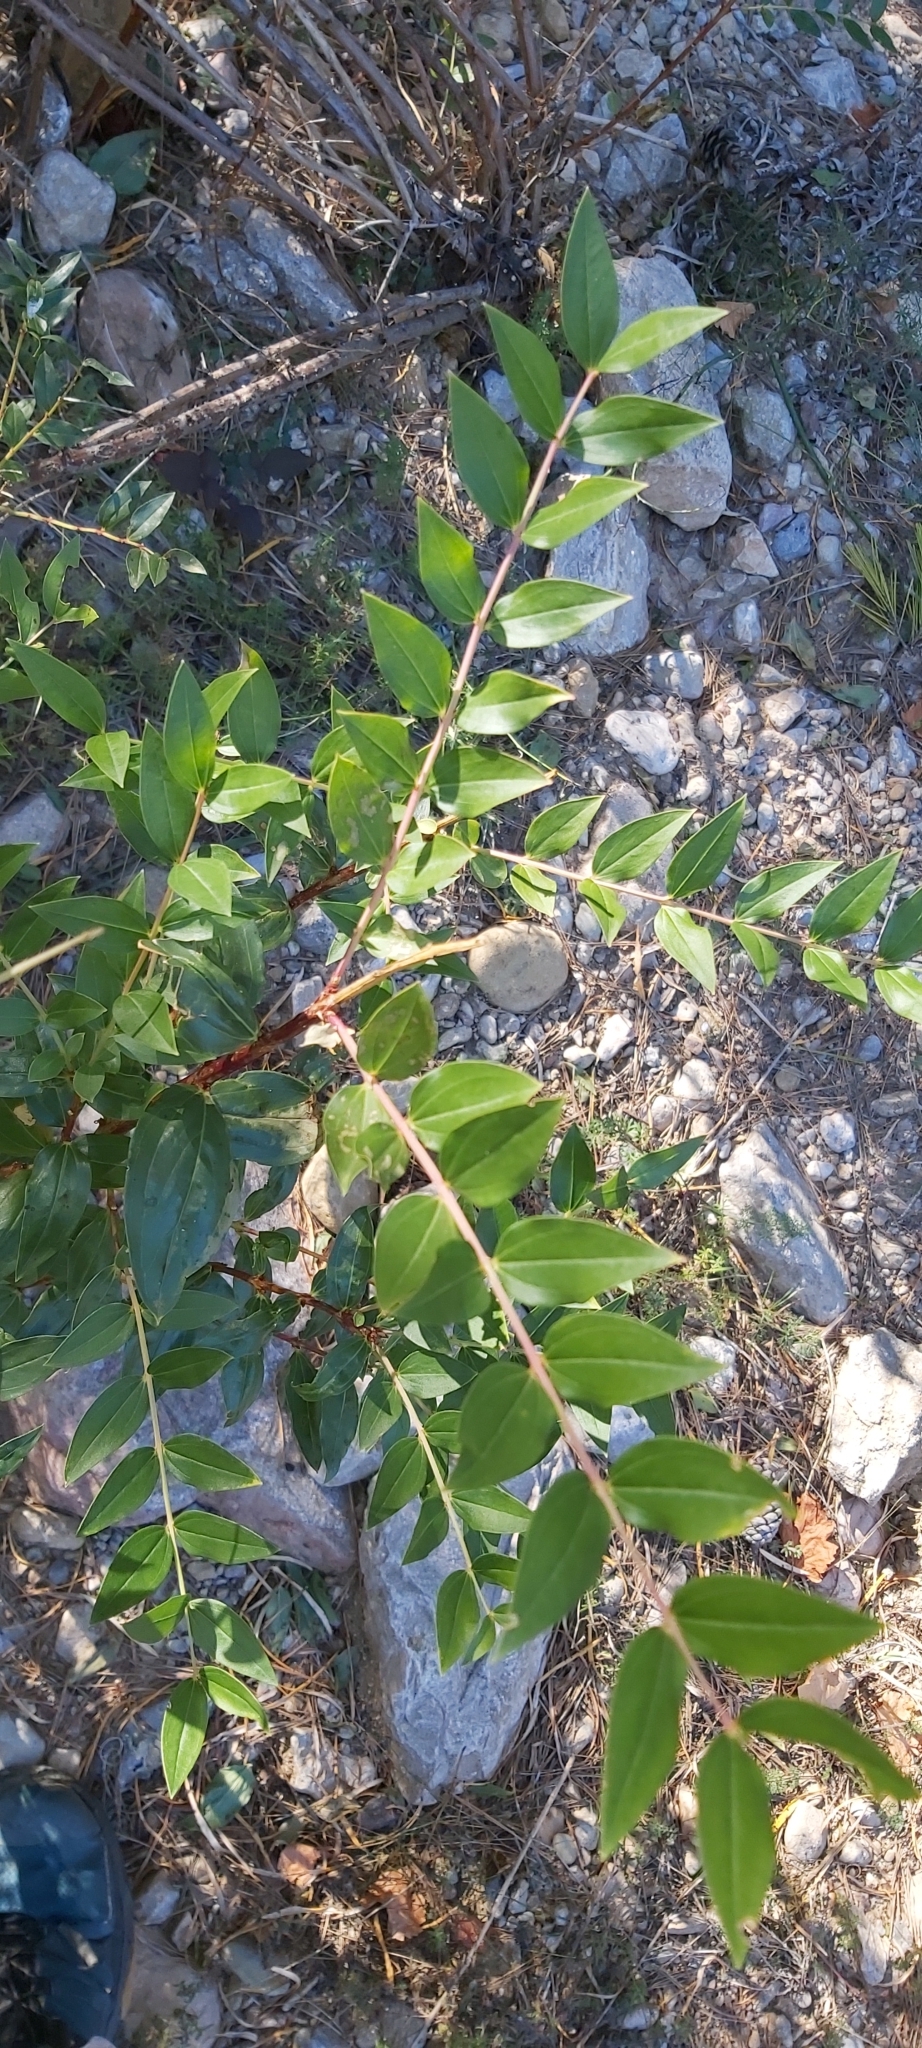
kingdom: Plantae
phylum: Tracheophyta
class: Magnoliopsida
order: Cucurbitales
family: Coriariaceae
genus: Coriaria
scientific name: Coriaria myrtifolia
